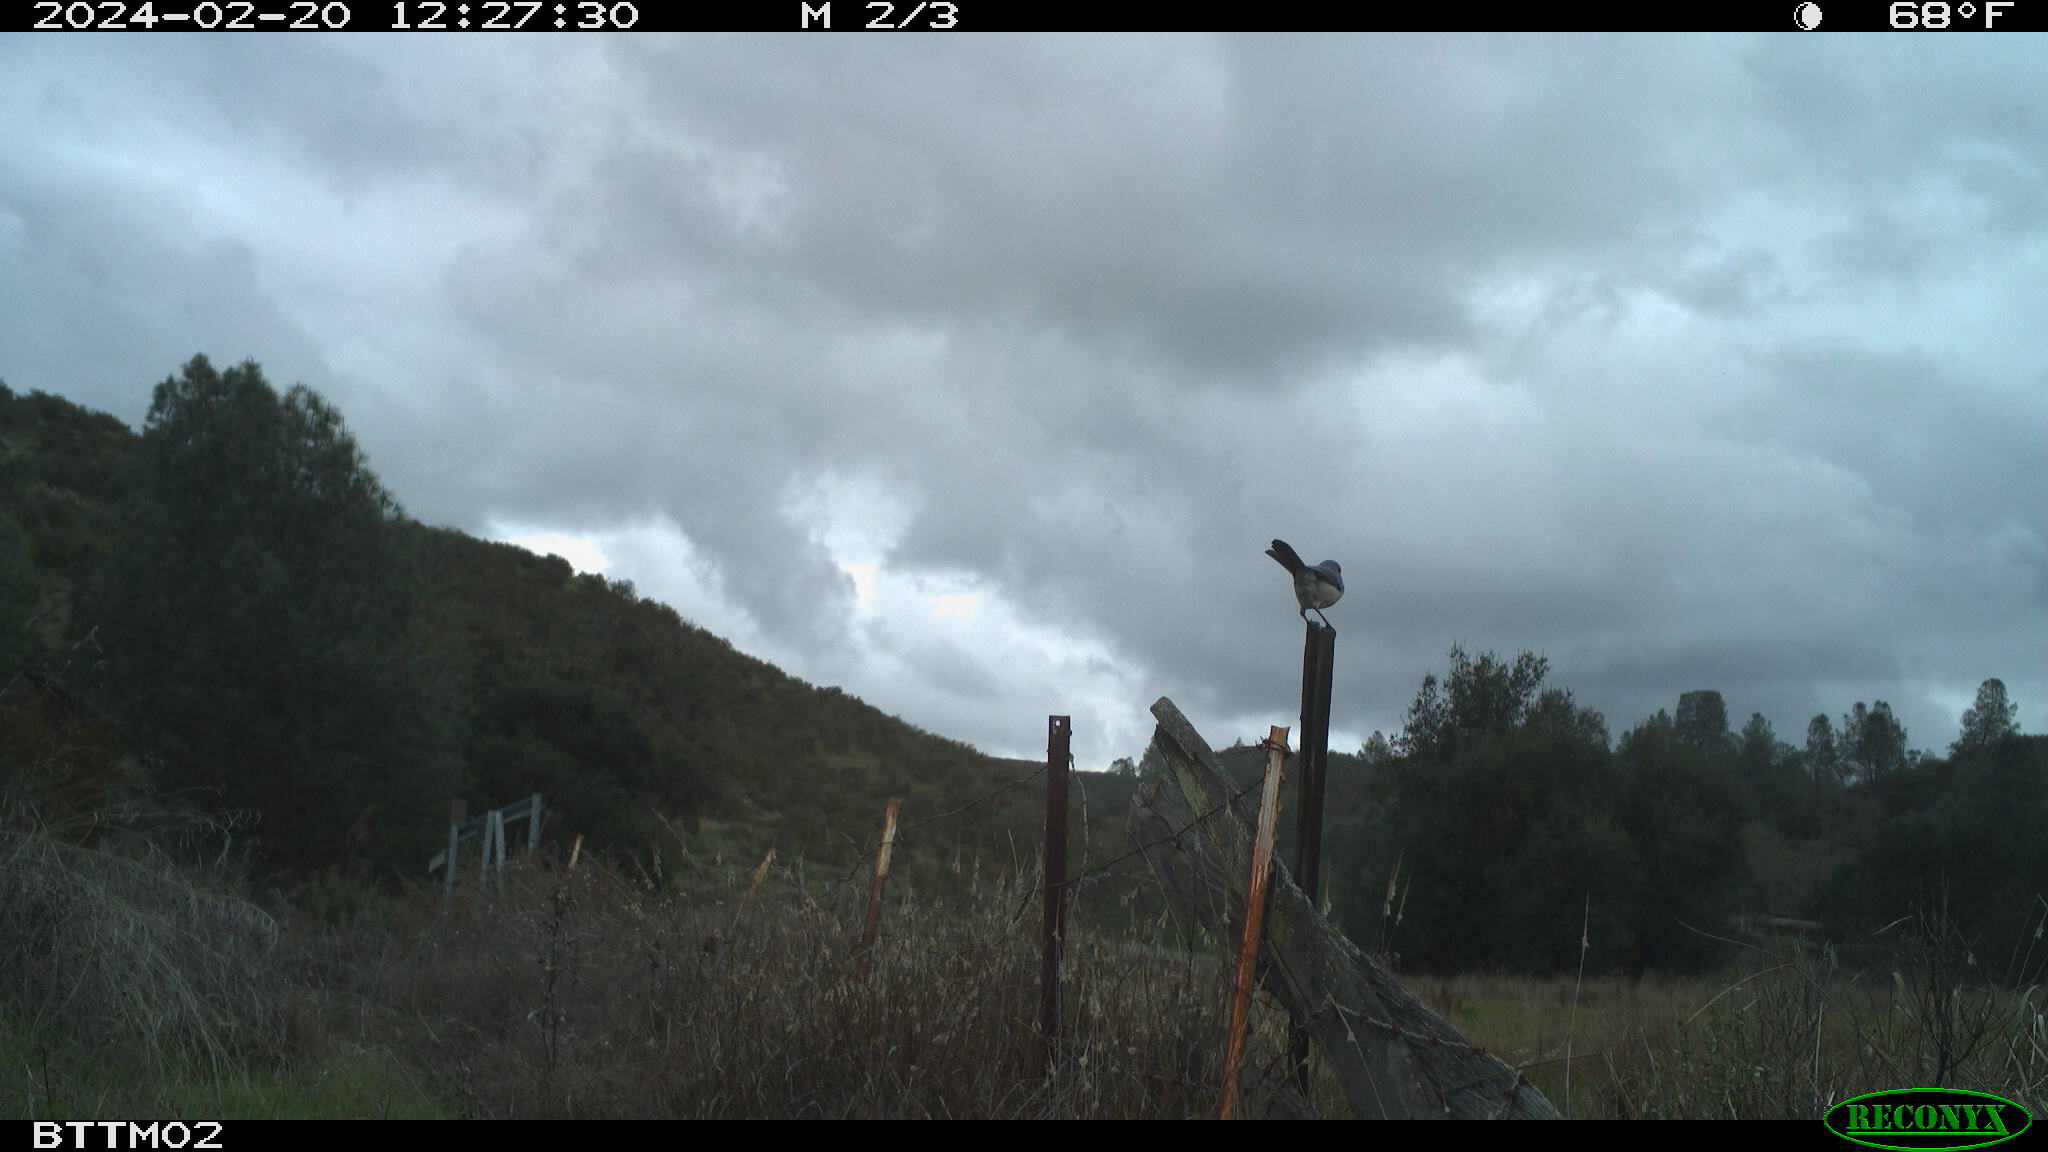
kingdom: Animalia
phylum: Chordata
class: Aves
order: Passeriformes
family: Corvidae
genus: Aphelocoma
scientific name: Aphelocoma californica
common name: California scrub-jay
